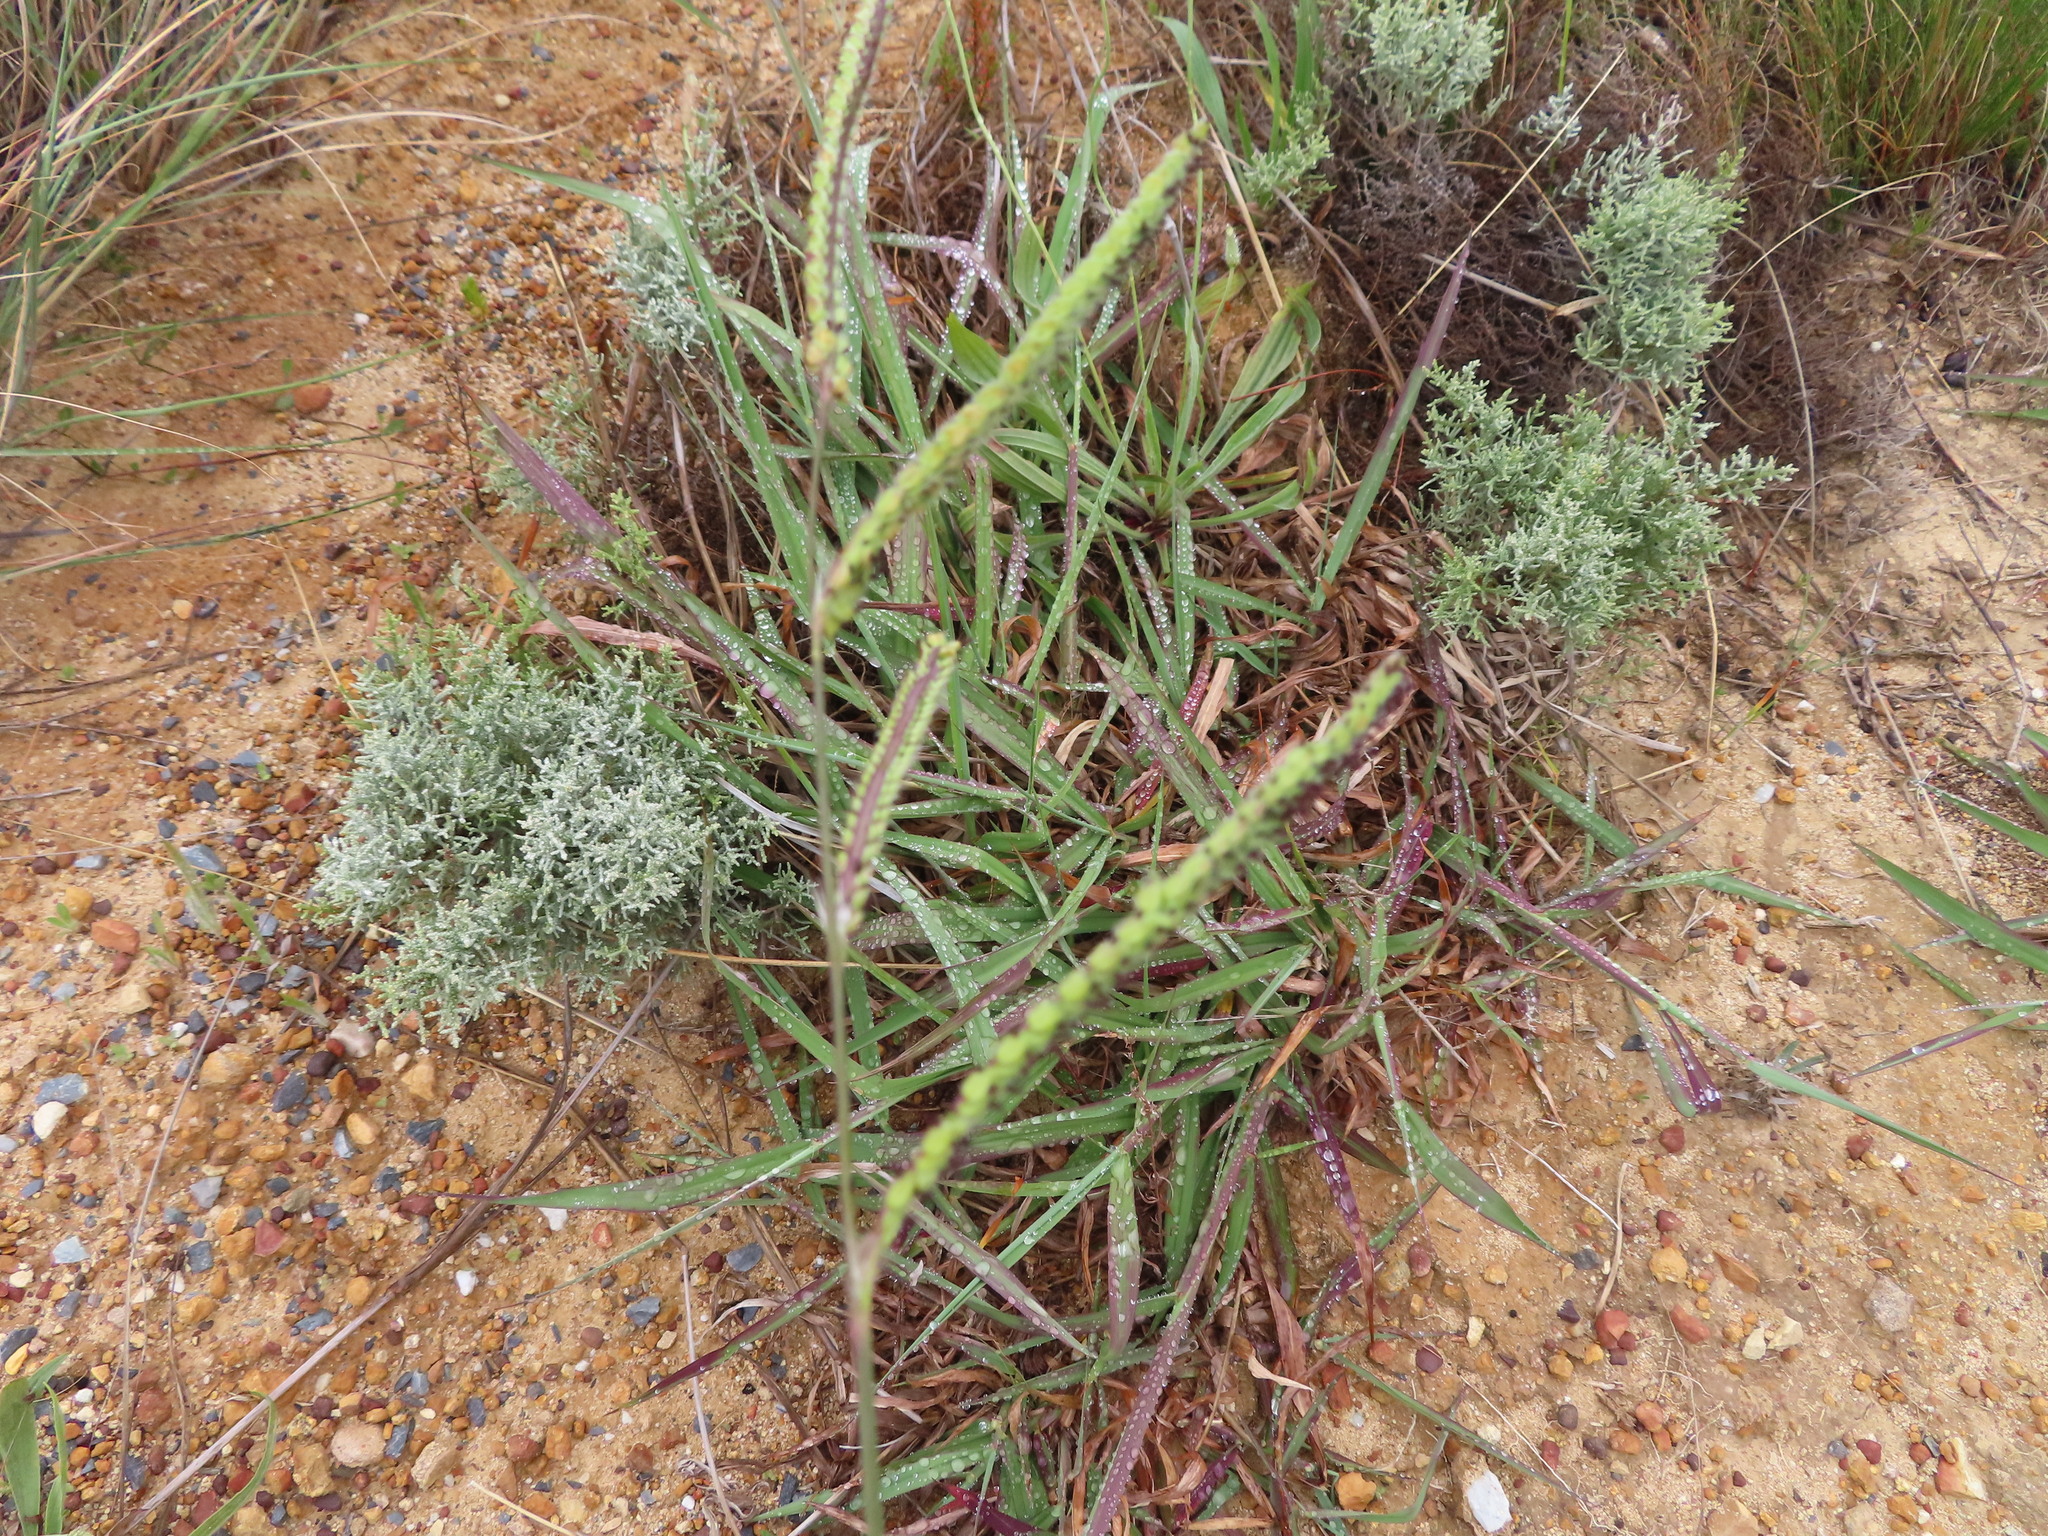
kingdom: Plantae
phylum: Tracheophyta
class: Liliopsida
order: Poales
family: Poaceae
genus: Paspalum
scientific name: Paspalum dilatatum
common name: Dallisgrass
